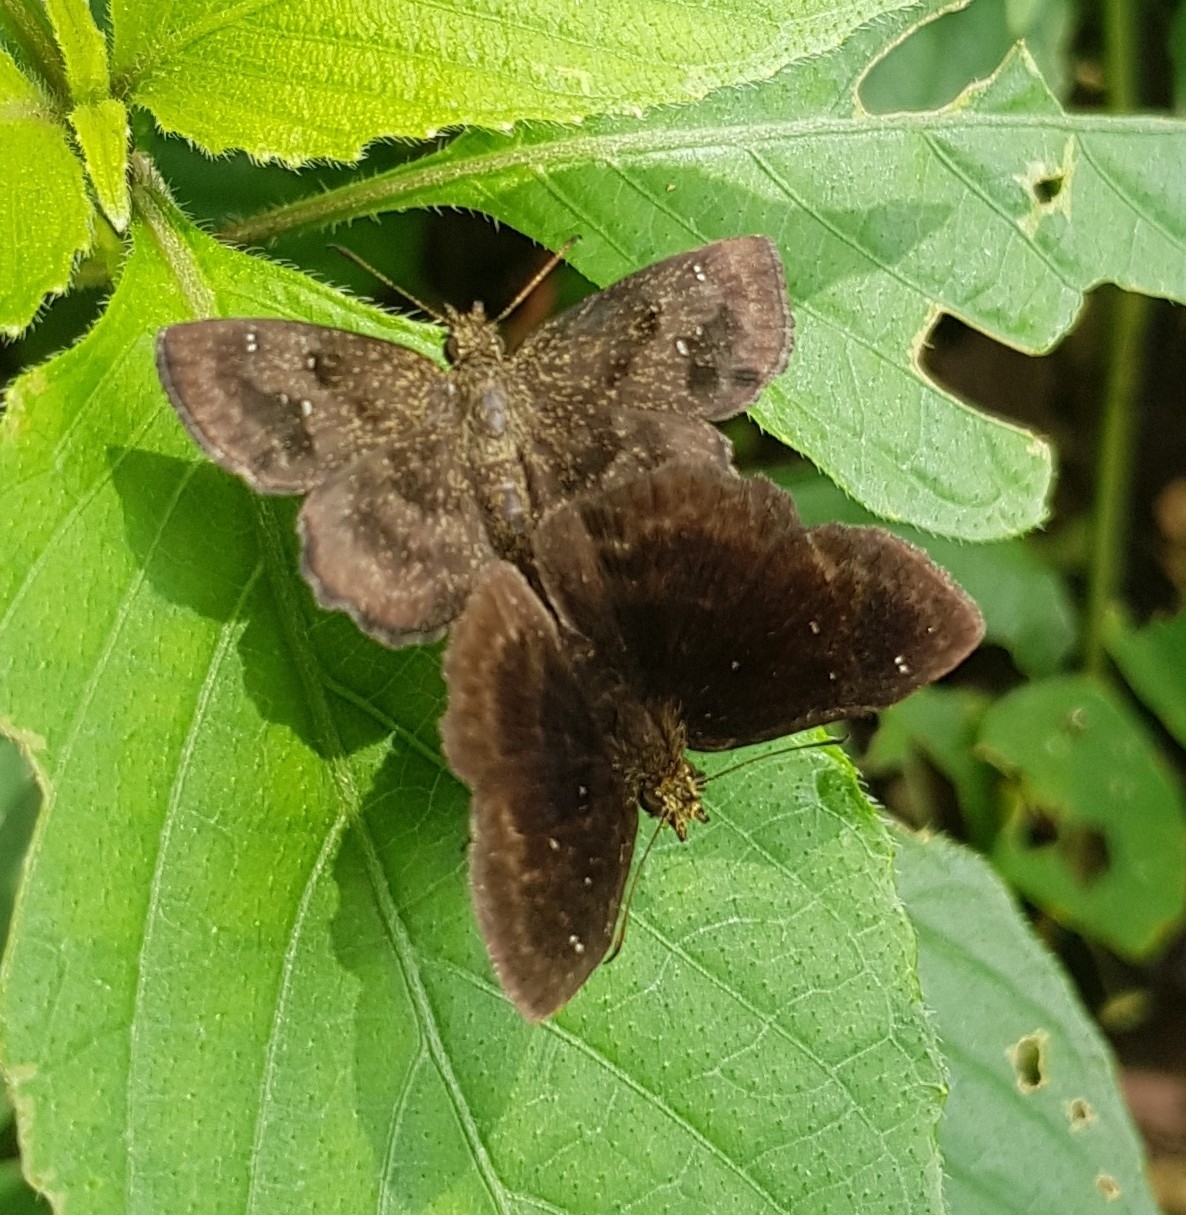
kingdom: Animalia
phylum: Arthropoda
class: Insecta
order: Lepidoptera
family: Hesperiidae
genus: Staphylus
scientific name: Staphylus mazans
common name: Mazans scallopwing
